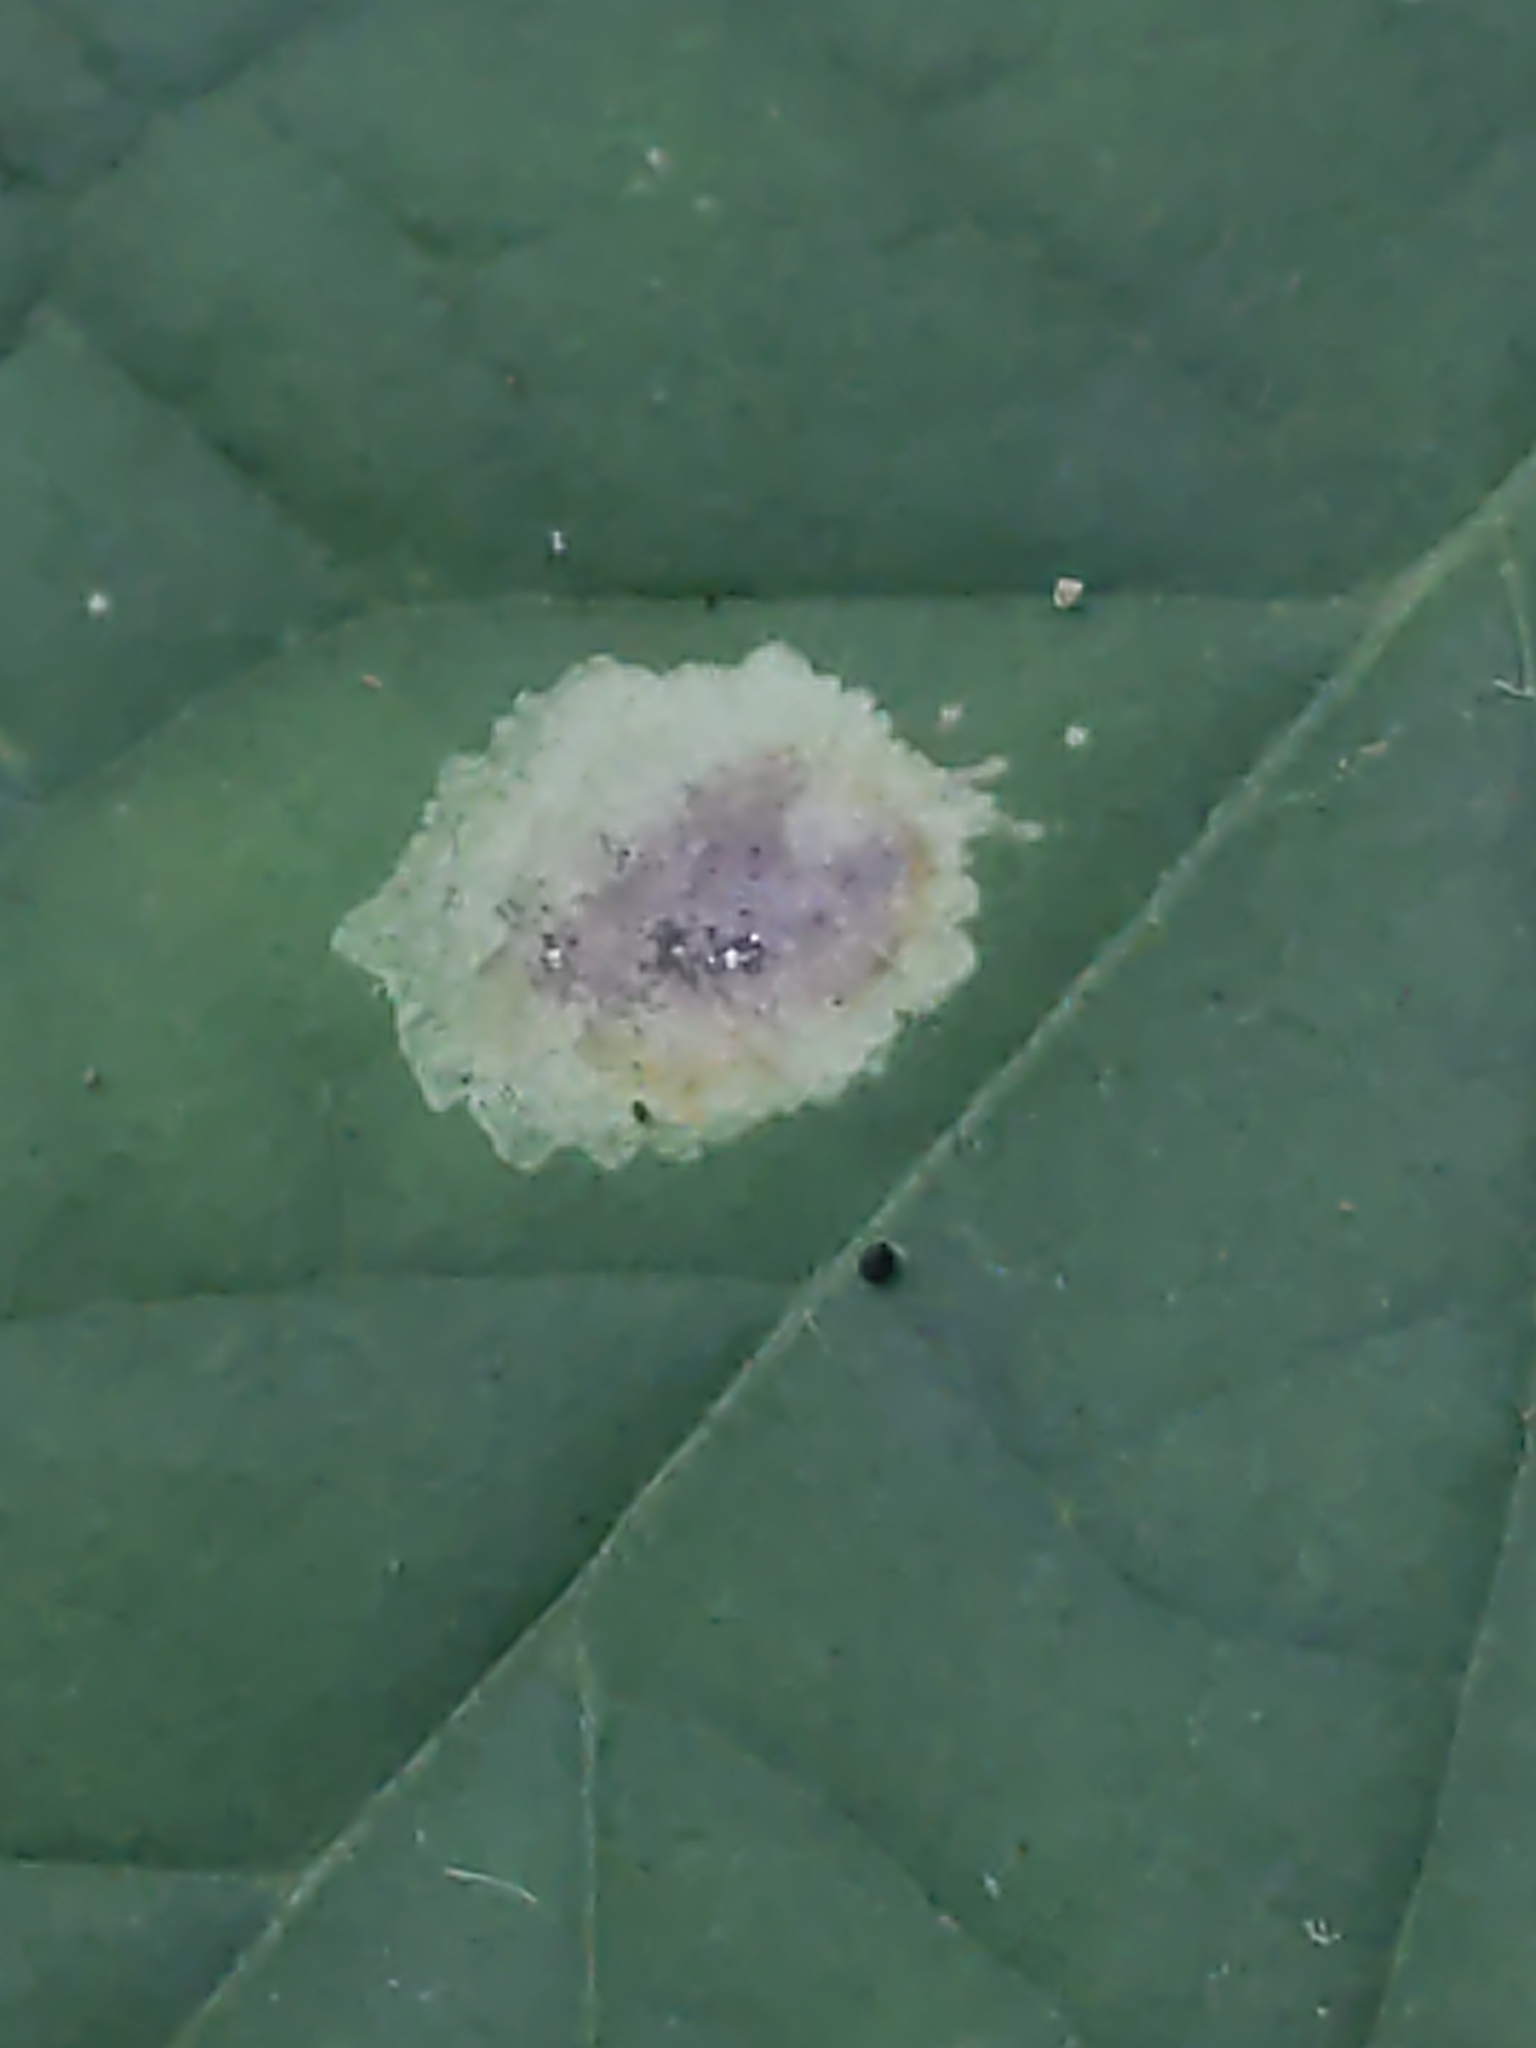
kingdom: Animalia
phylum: Arthropoda
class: Insecta
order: Diptera
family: Agromyzidae
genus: Calycomyza
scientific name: Calycomyza flavinotum
